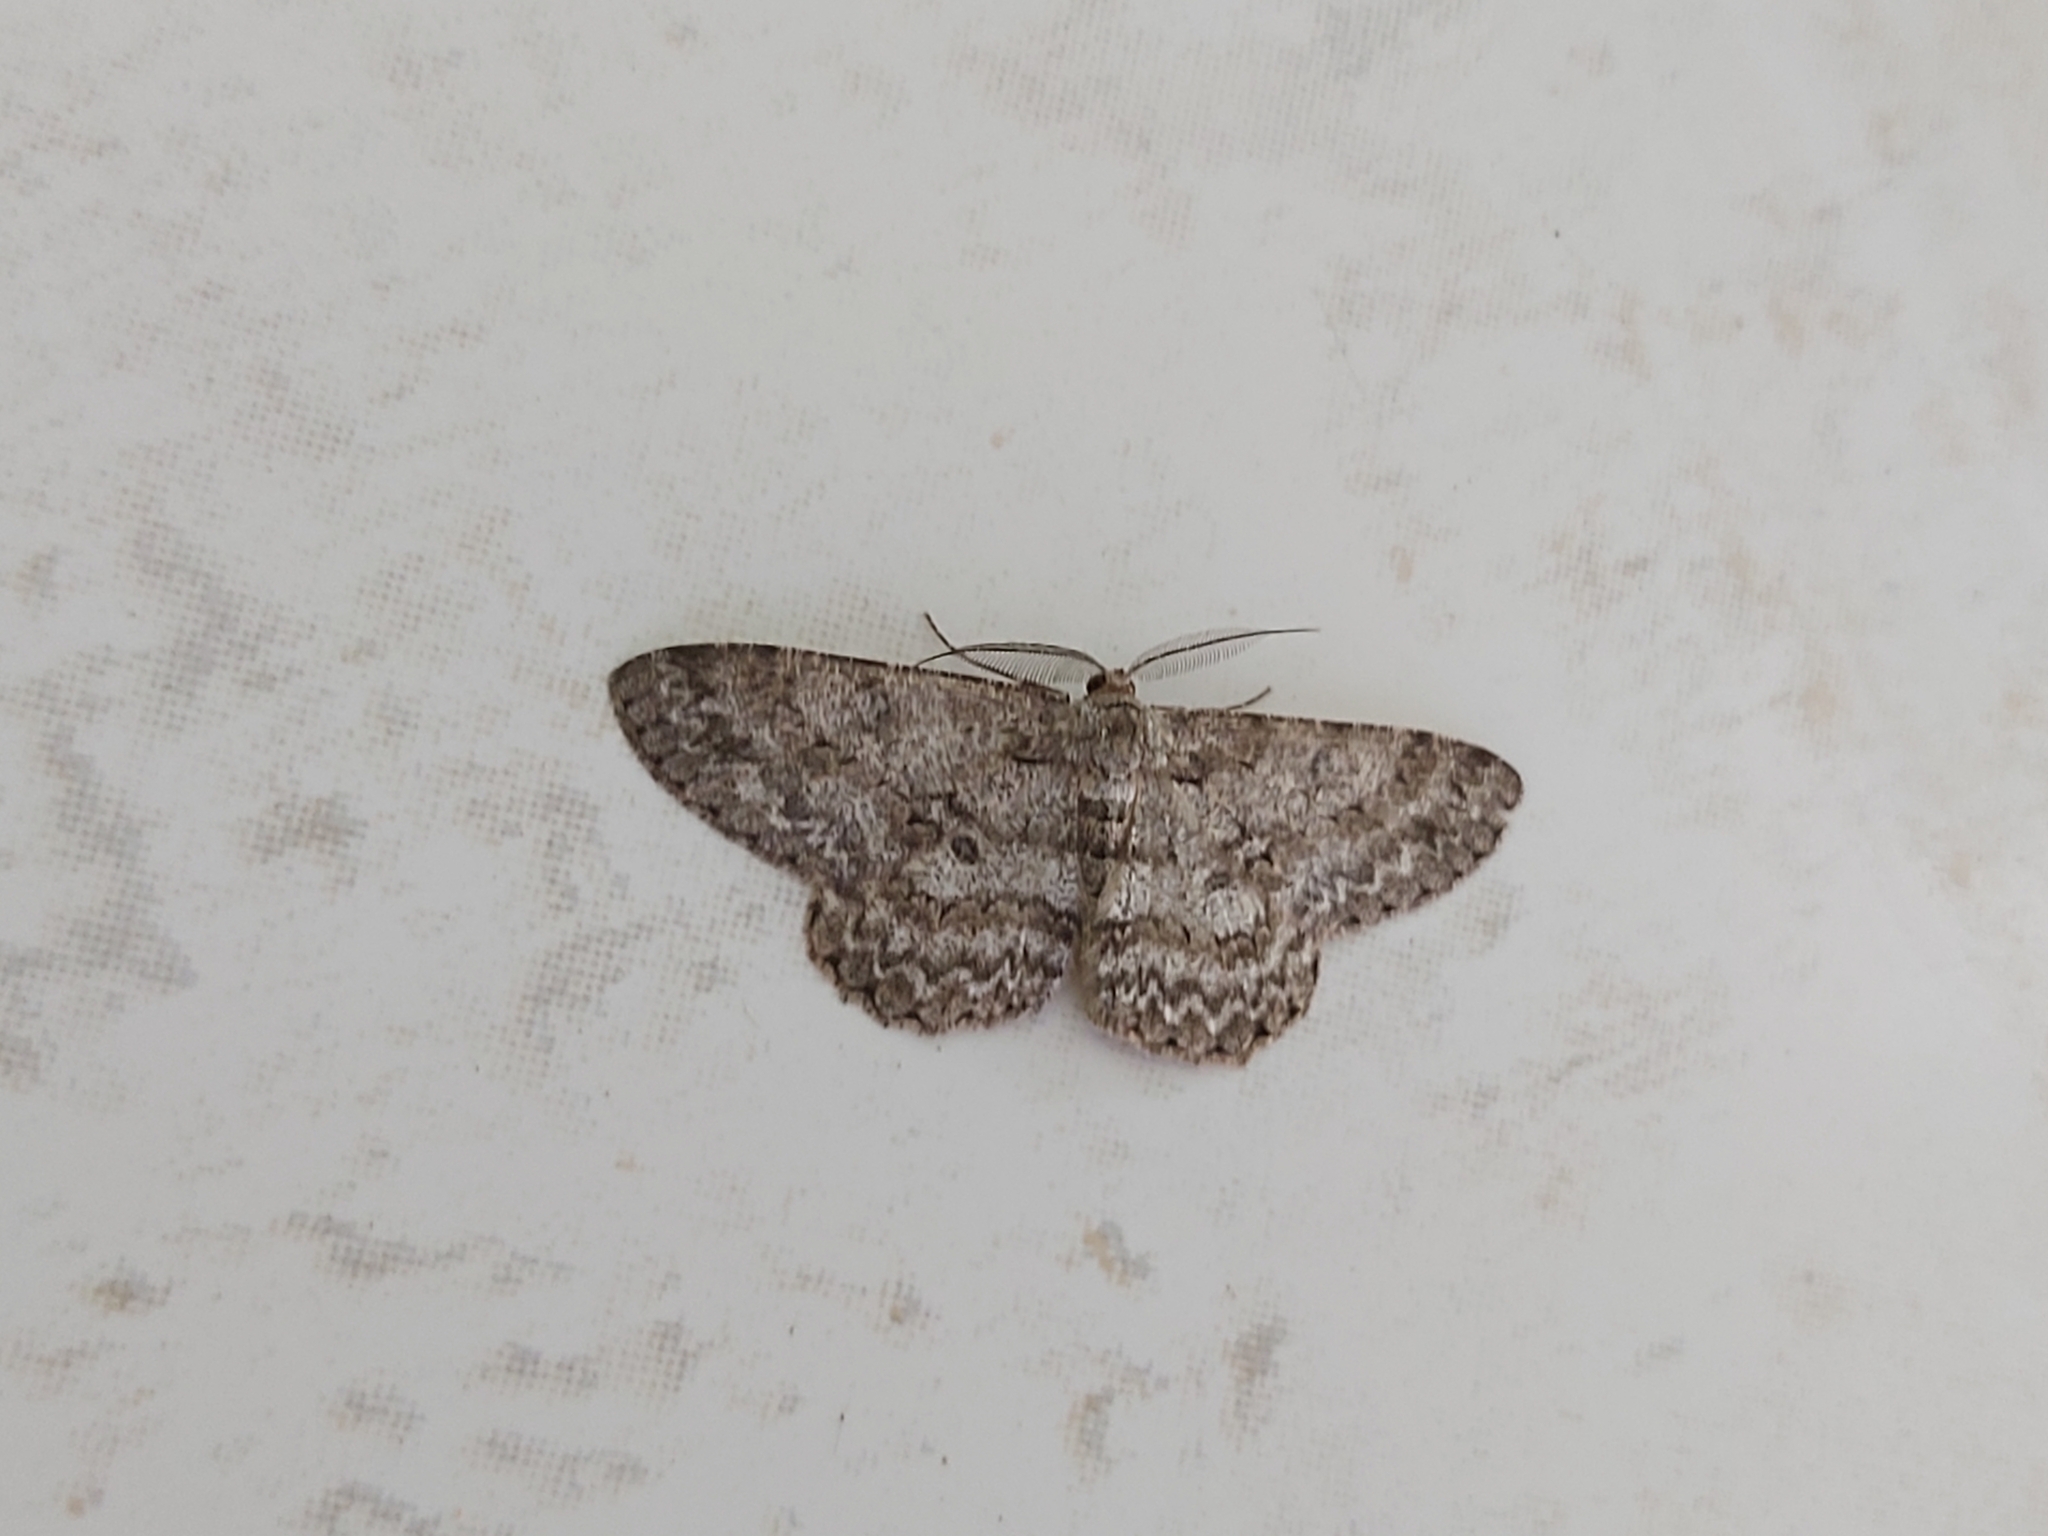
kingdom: Animalia
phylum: Arthropoda
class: Insecta
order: Lepidoptera
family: Geometridae
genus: Hypomecis
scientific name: Hypomecis punctinalis
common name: Pale oak beauty
